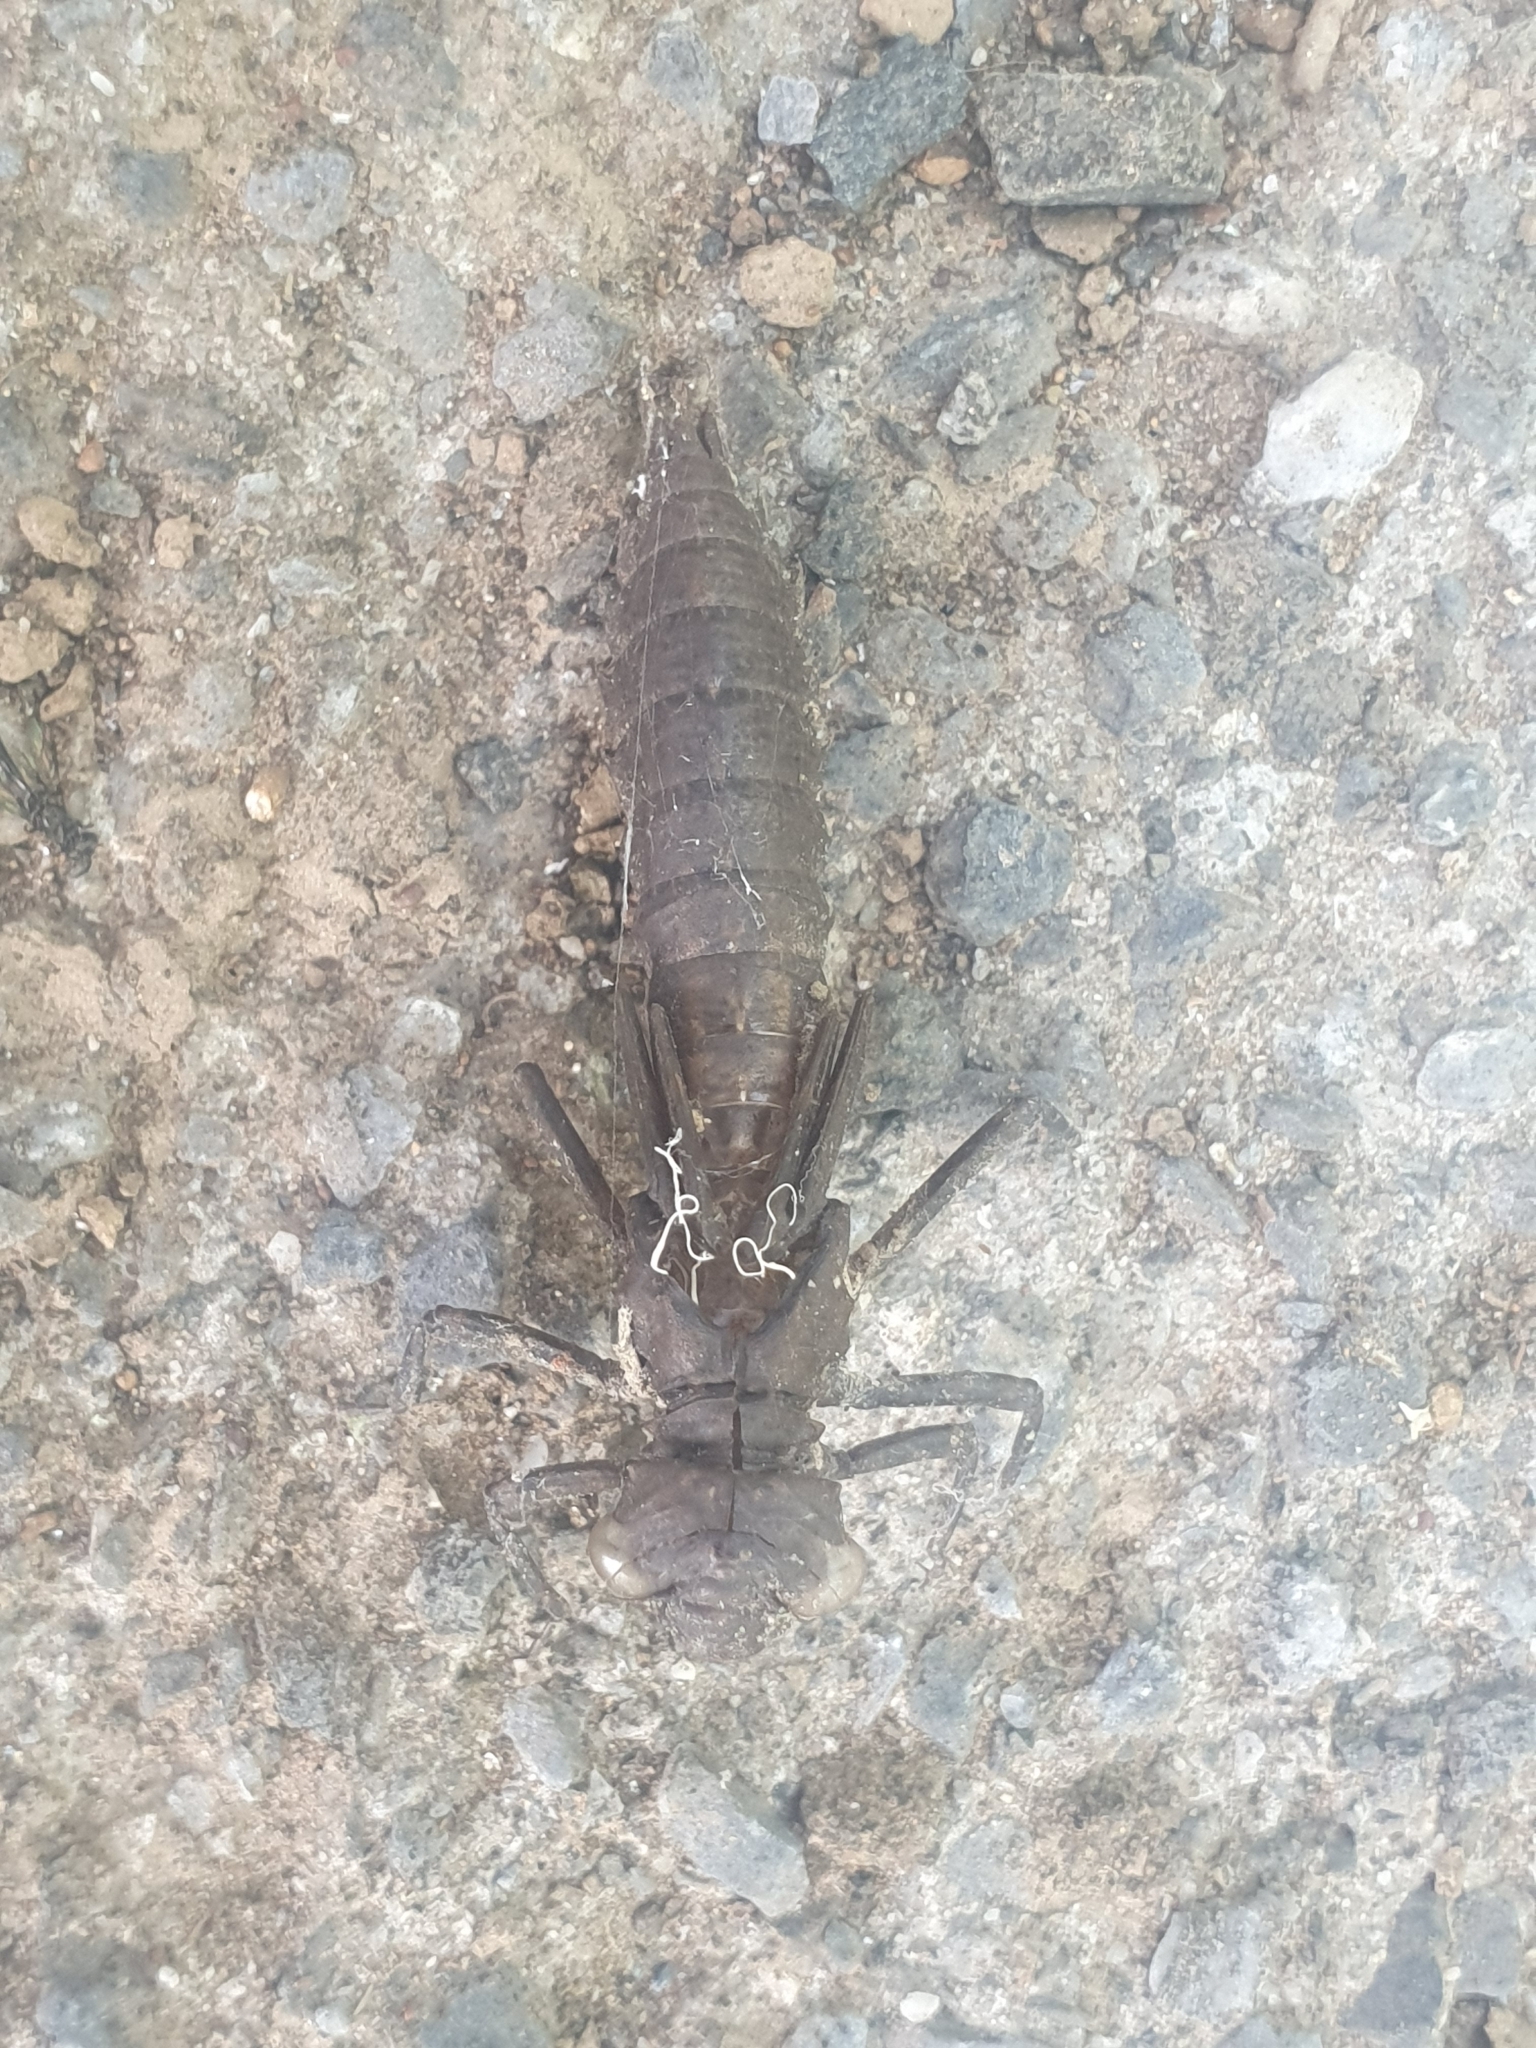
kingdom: Animalia
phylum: Arthropoda
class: Insecta
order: Odonata
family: Aeshnidae
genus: Boyeria
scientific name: Boyeria irene
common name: Western spectre
